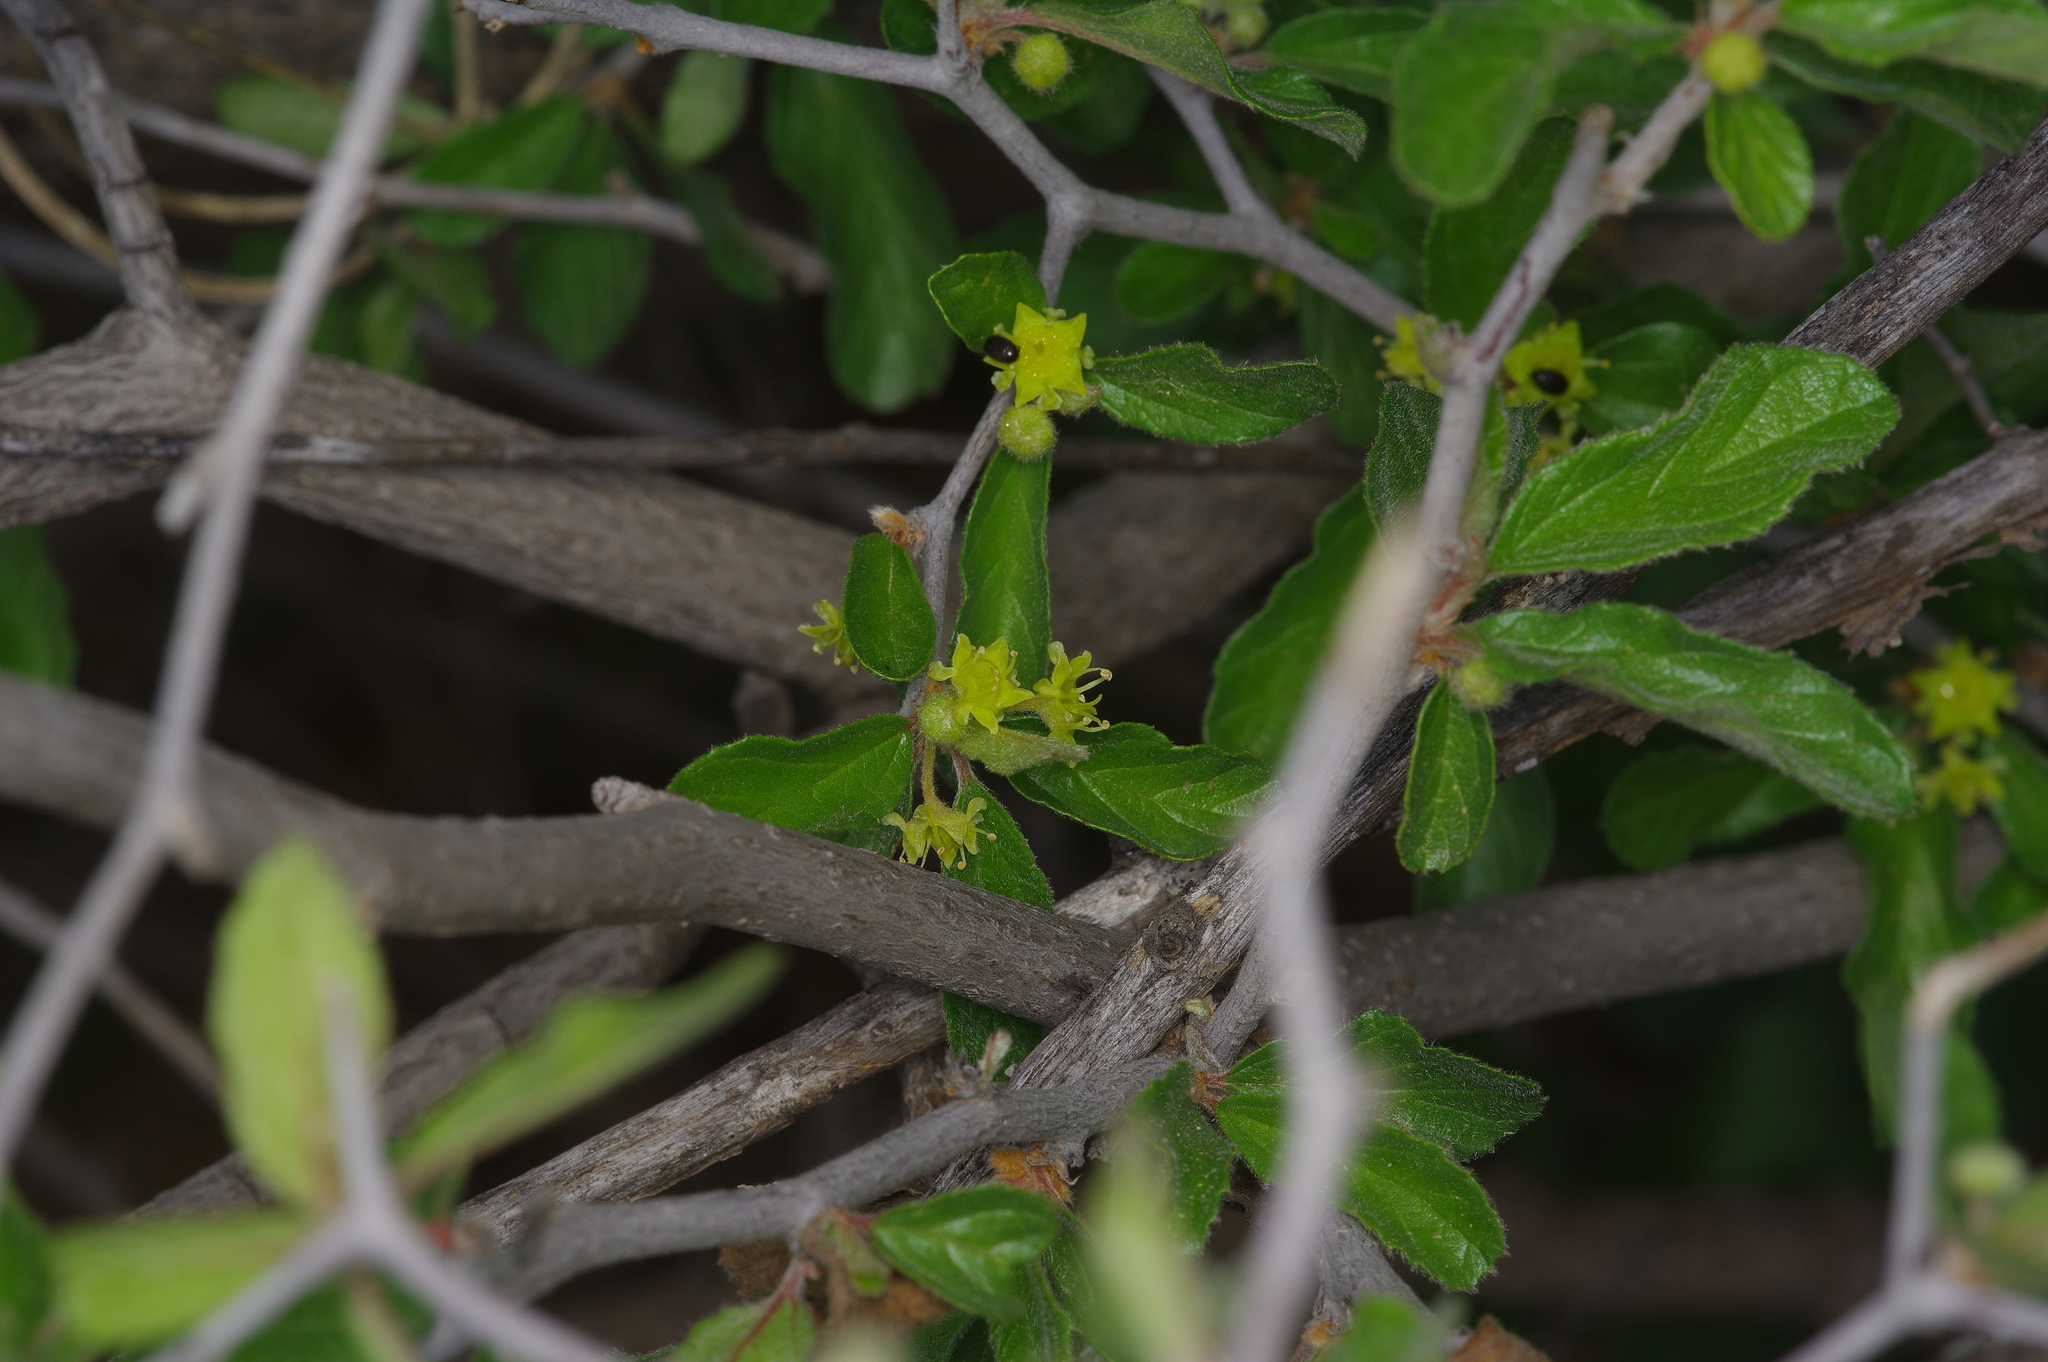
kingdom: Plantae
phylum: Tracheophyta
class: Magnoliopsida
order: Rosales
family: Rhamnaceae
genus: Colubrina
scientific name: Colubrina texensis
